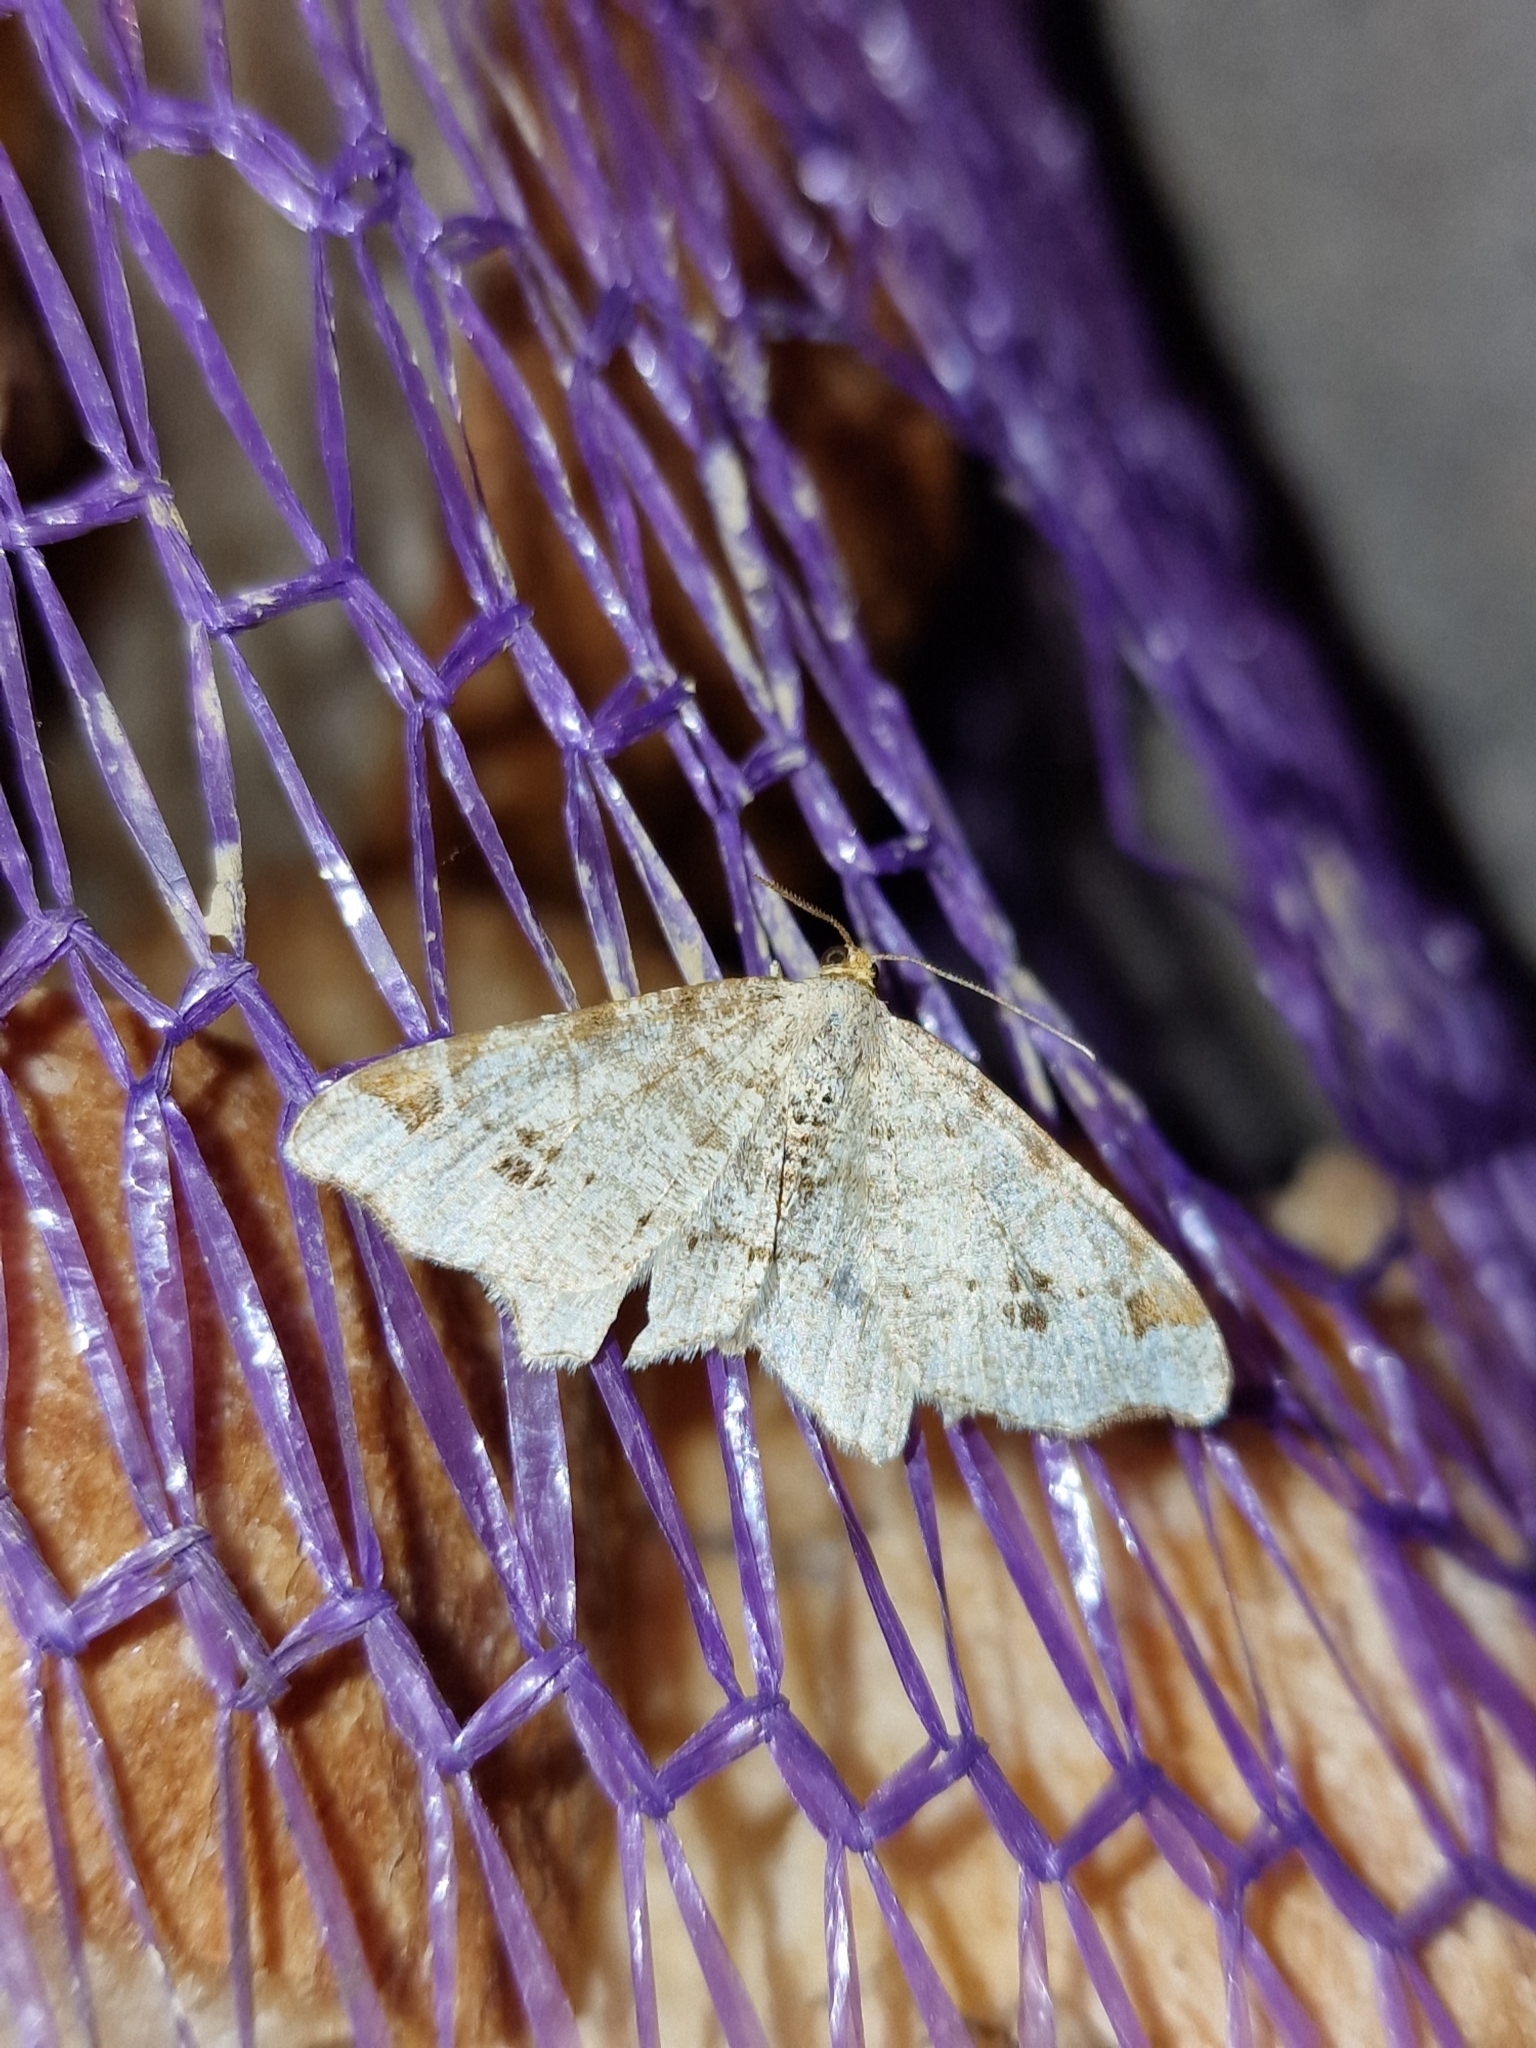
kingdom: Animalia
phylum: Arthropoda
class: Insecta
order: Lepidoptera
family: Geometridae
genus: Macaria
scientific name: Macaria alternata
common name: Sharp-angled peacock
